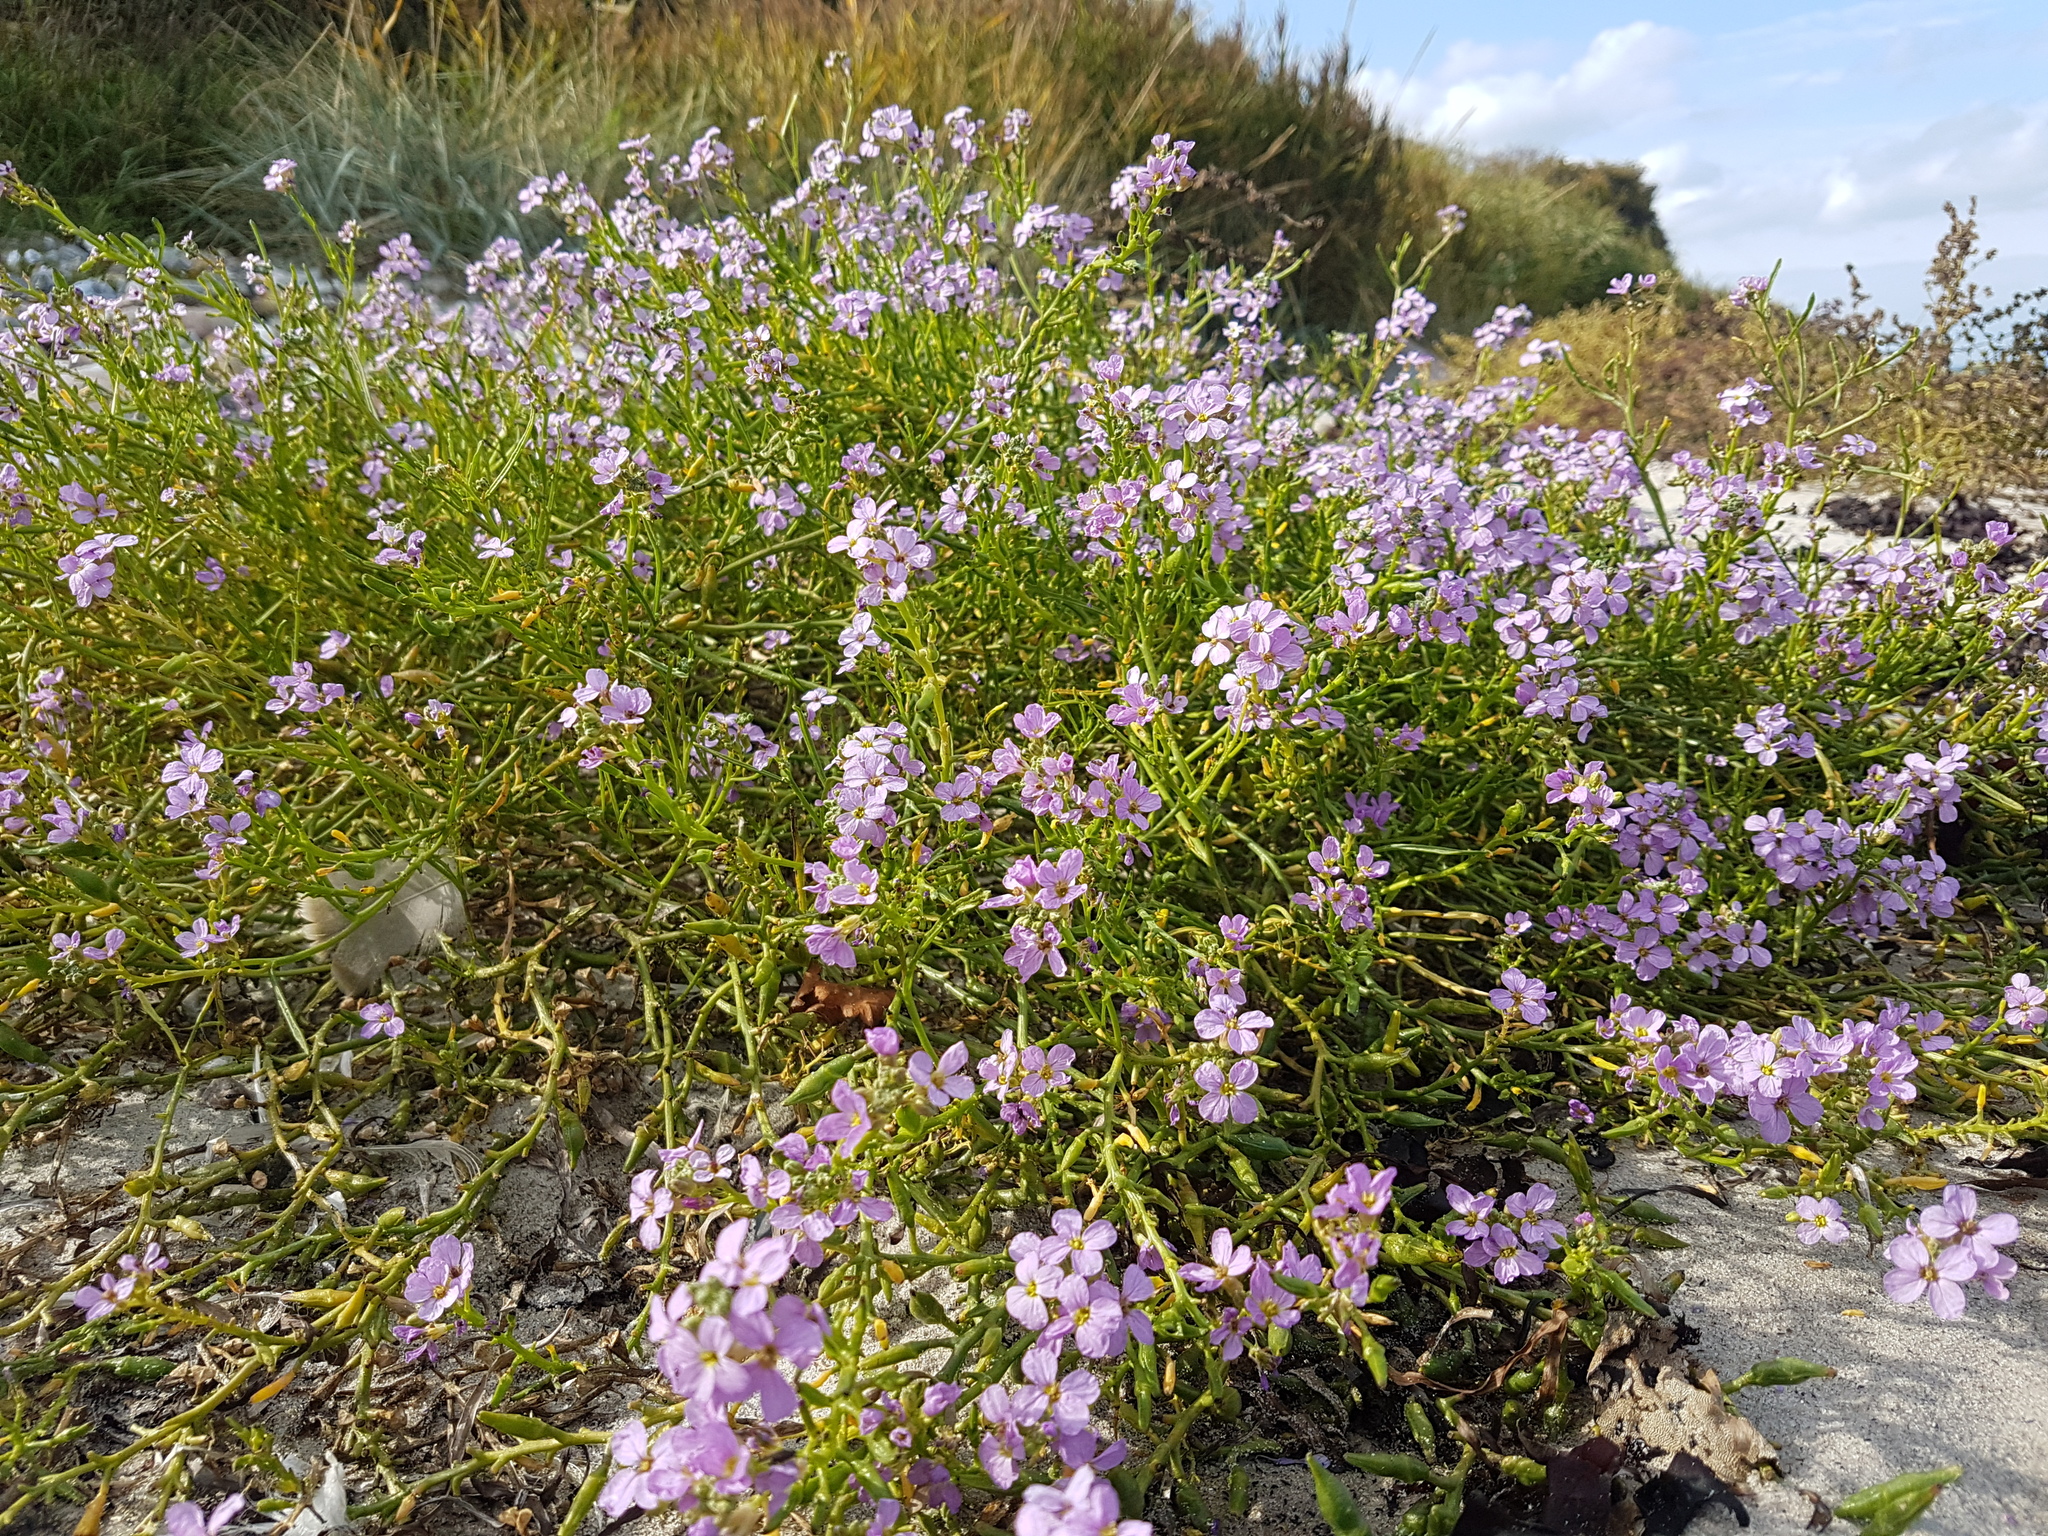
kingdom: Plantae
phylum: Tracheophyta
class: Magnoliopsida
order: Brassicales
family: Brassicaceae
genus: Cakile
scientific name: Cakile maritima
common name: Sea rocket
